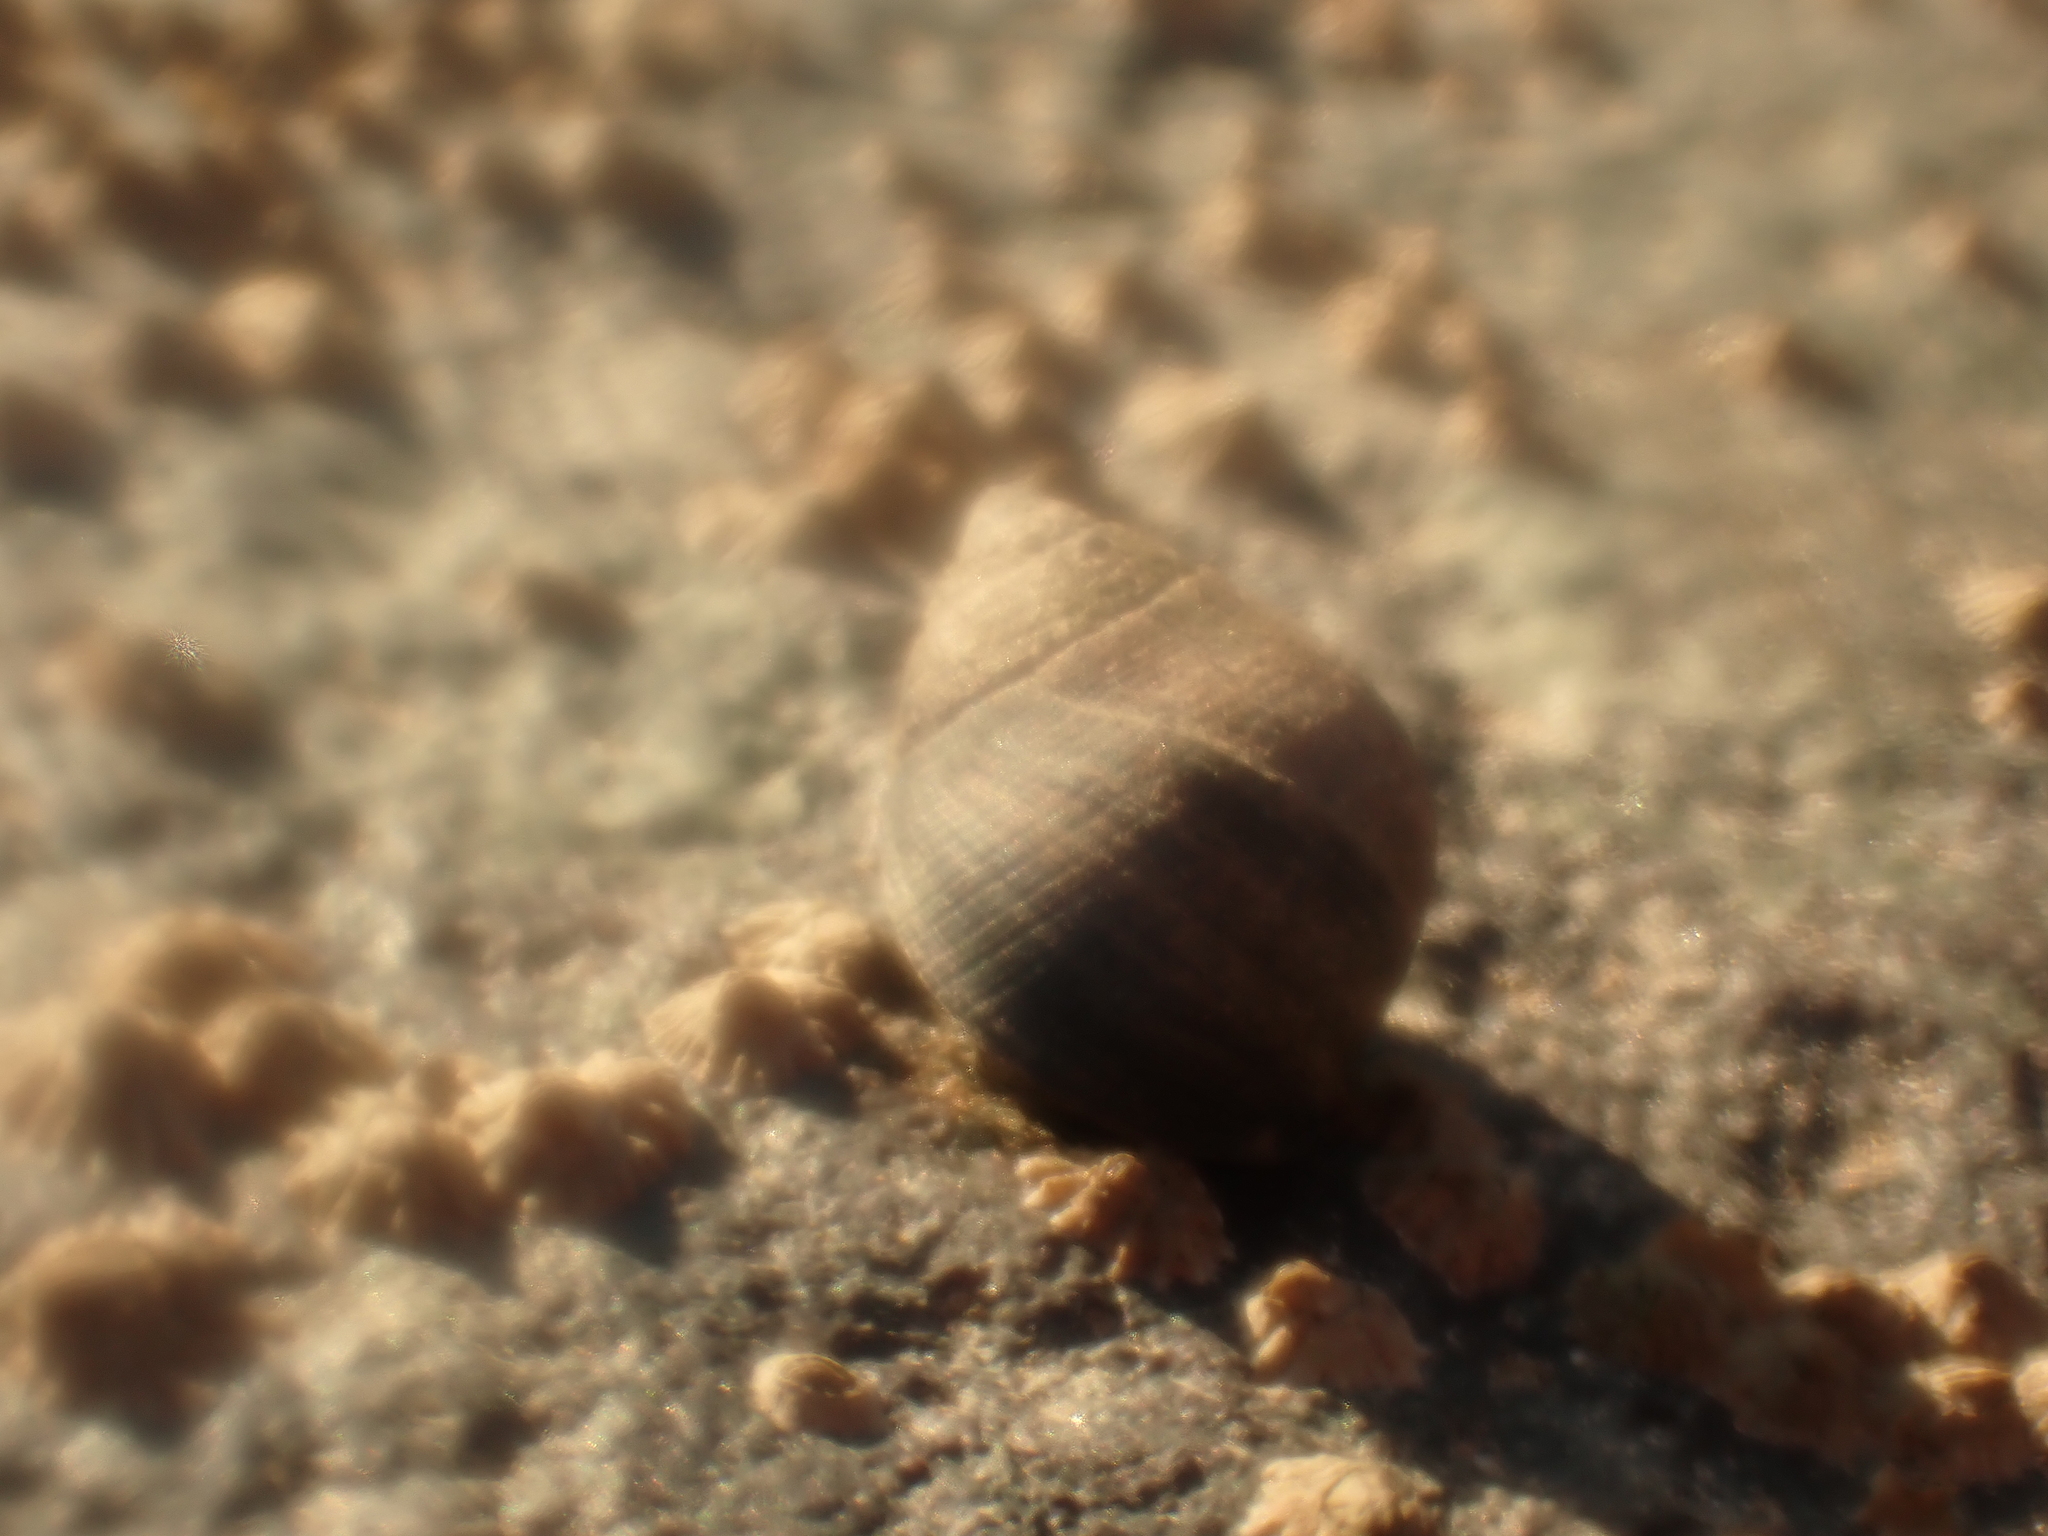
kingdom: Animalia
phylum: Mollusca
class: Gastropoda
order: Littorinimorpha
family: Littorinidae
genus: Littorina
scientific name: Littorina littorea
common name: Common periwinkle
